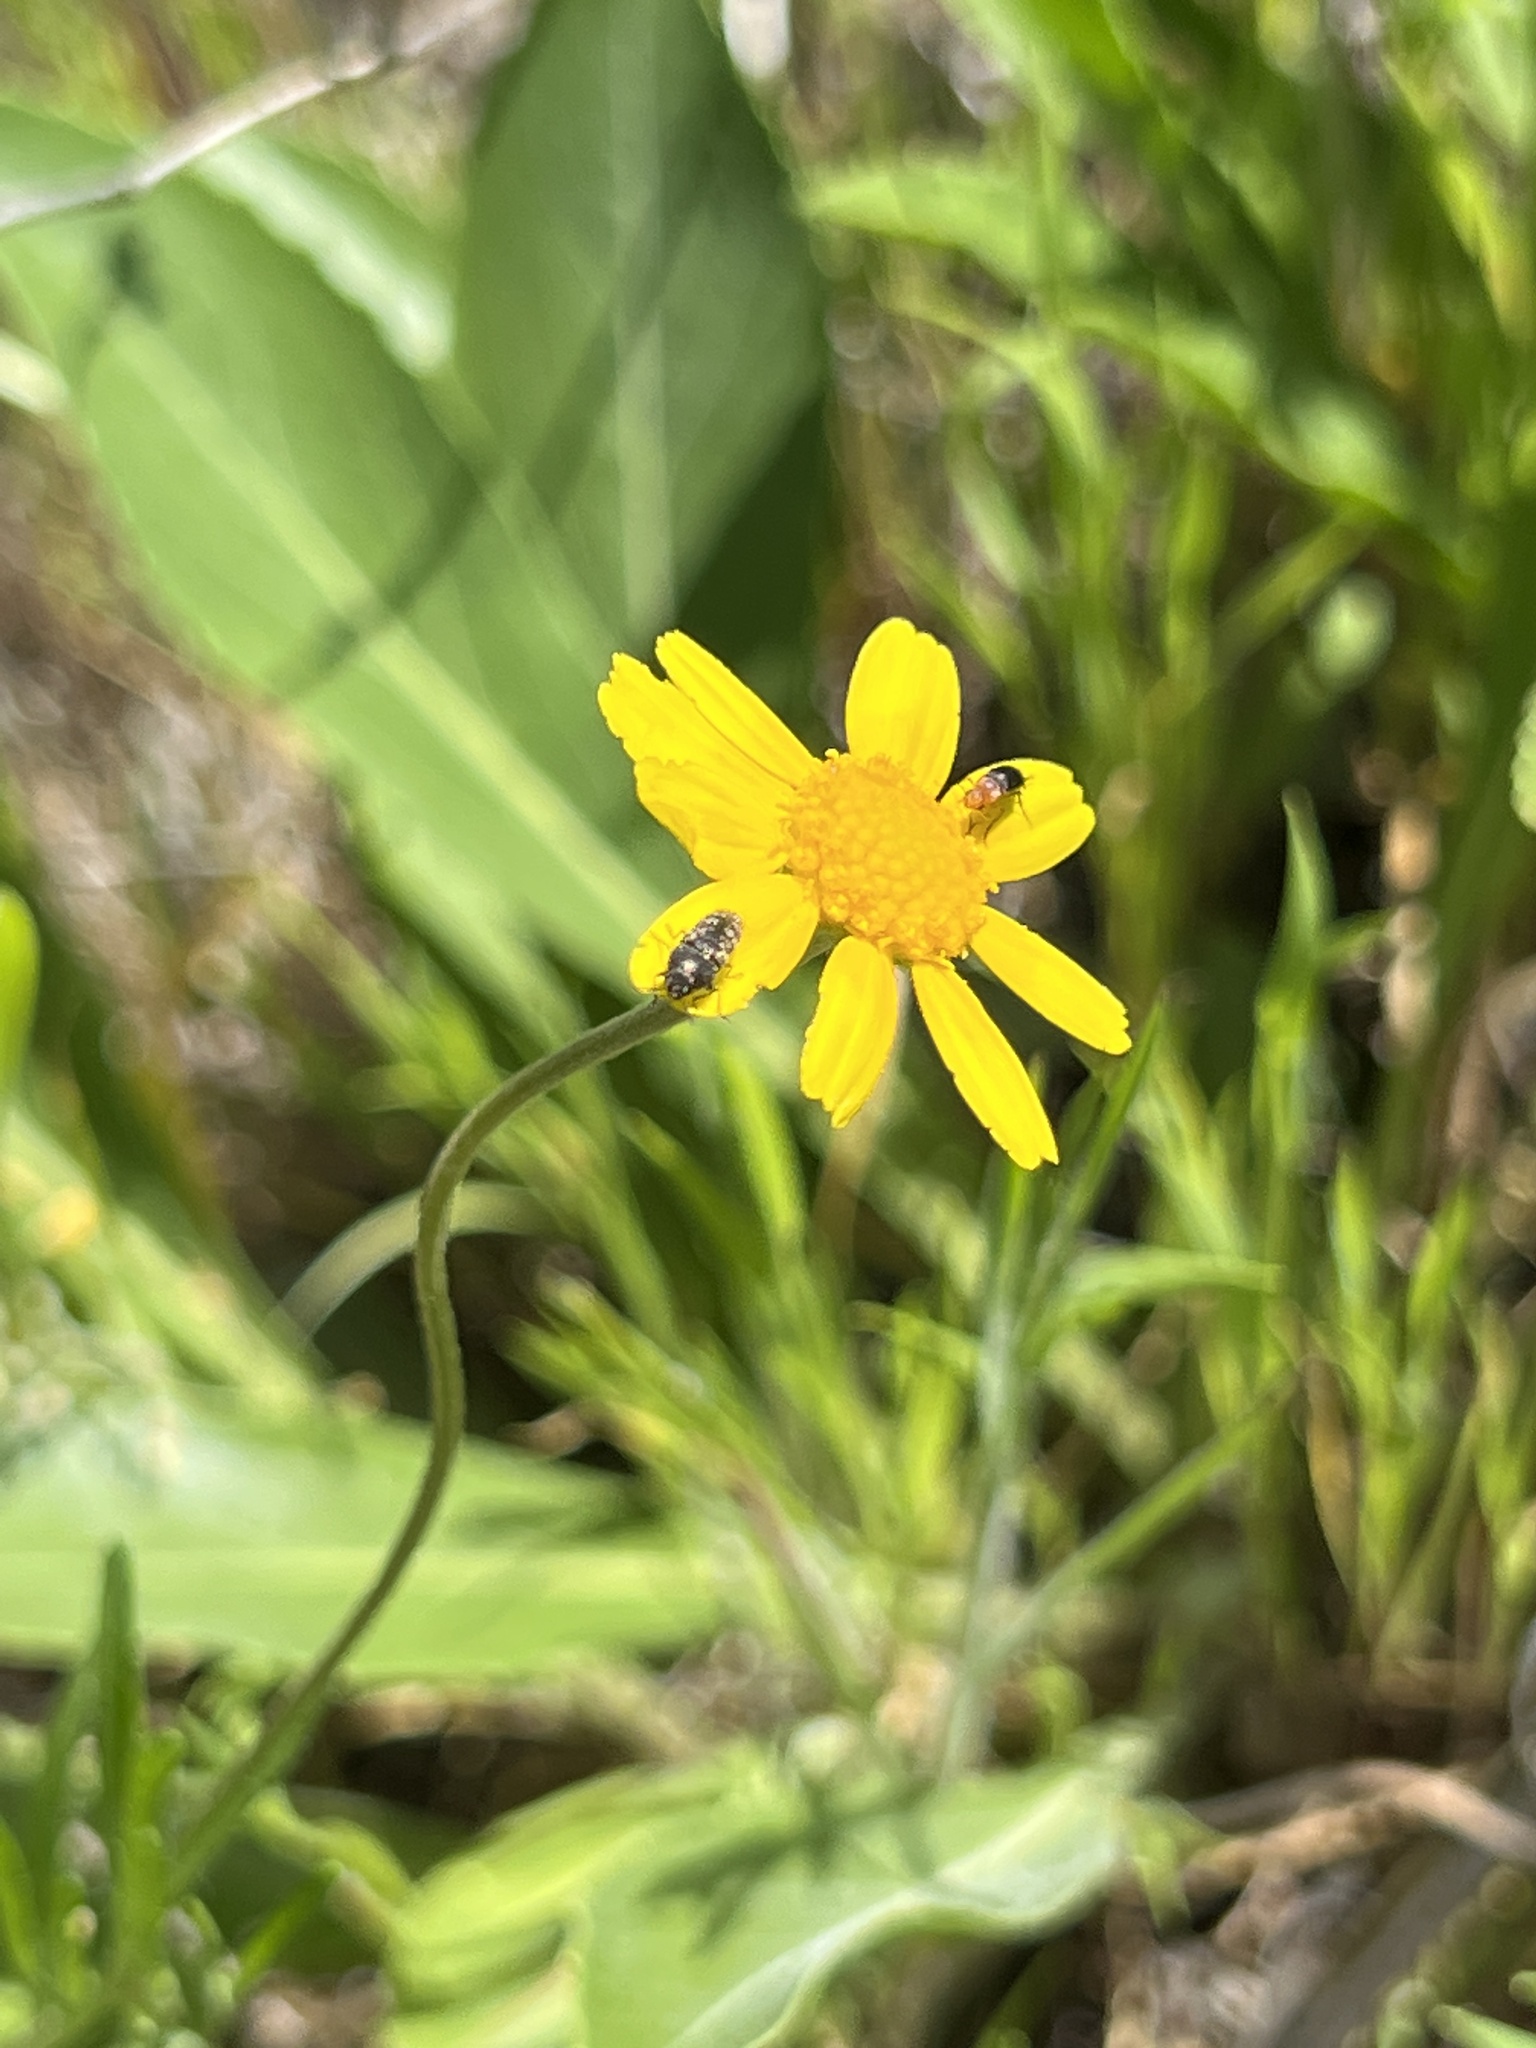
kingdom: Plantae
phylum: Tracheophyta
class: Magnoliopsida
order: Asterales
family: Asteraceae
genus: Tetraneuris
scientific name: Tetraneuris linearifolia
